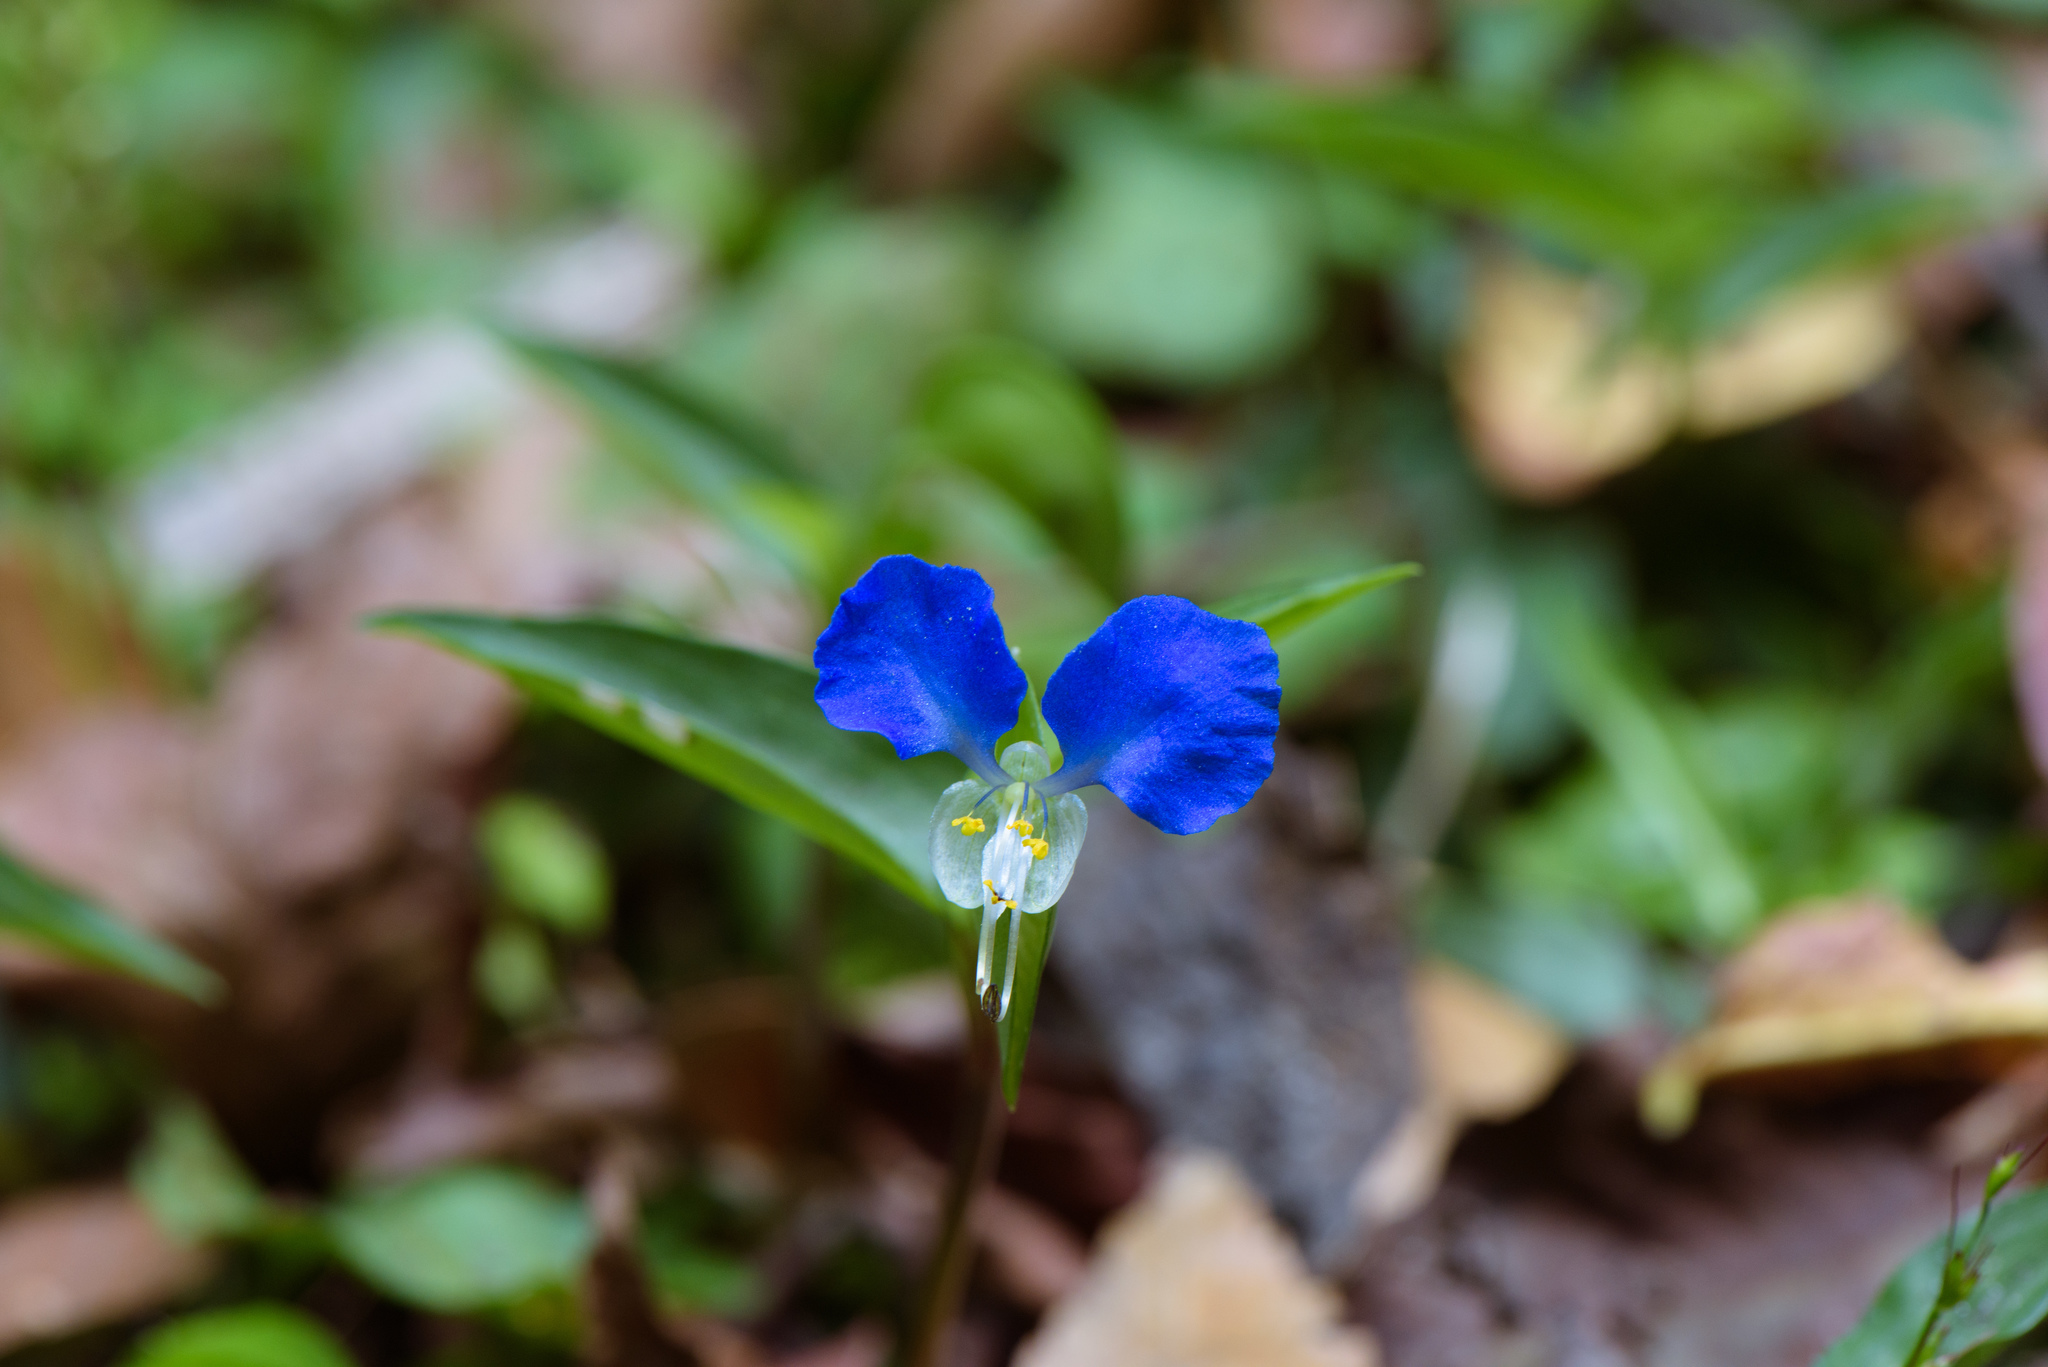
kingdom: Plantae
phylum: Tracheophyta
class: Liliopsida
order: Commelinales
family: Commelinaceae
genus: Commelina
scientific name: Commelina communis
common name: Asiatic dayflower
